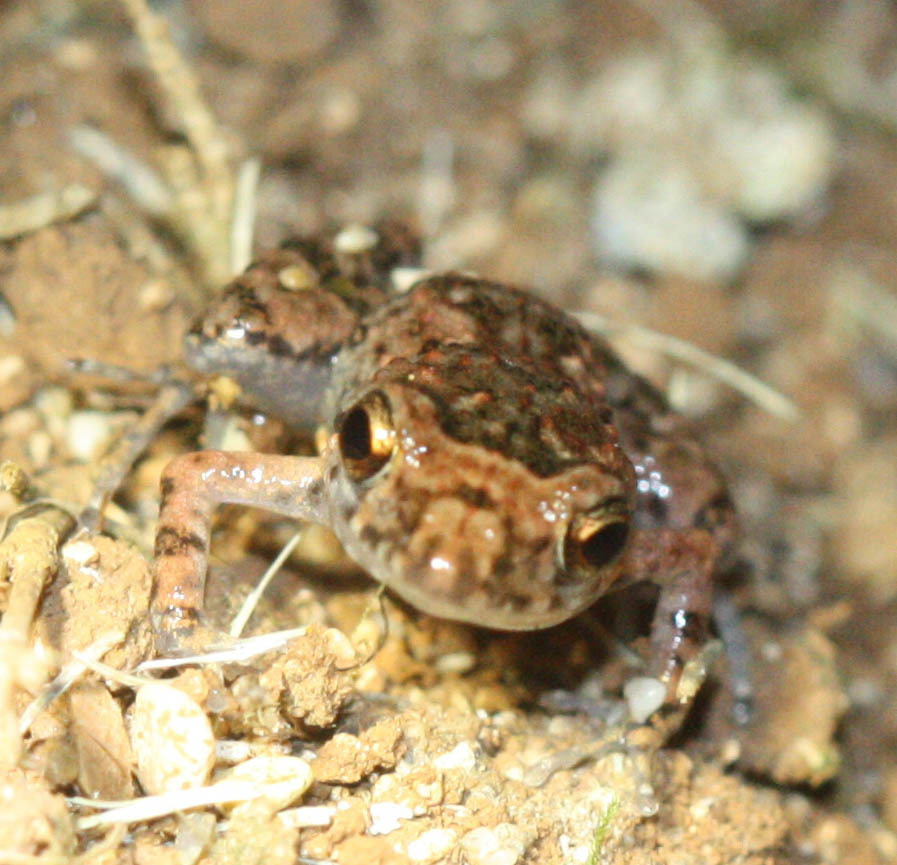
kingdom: Animalia
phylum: Chordata
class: Amphibia
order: Anura
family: Eleutherodactylidae
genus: Eleutherodactylus
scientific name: Eleutherodactylus planirostris
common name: Greenhouse frog
